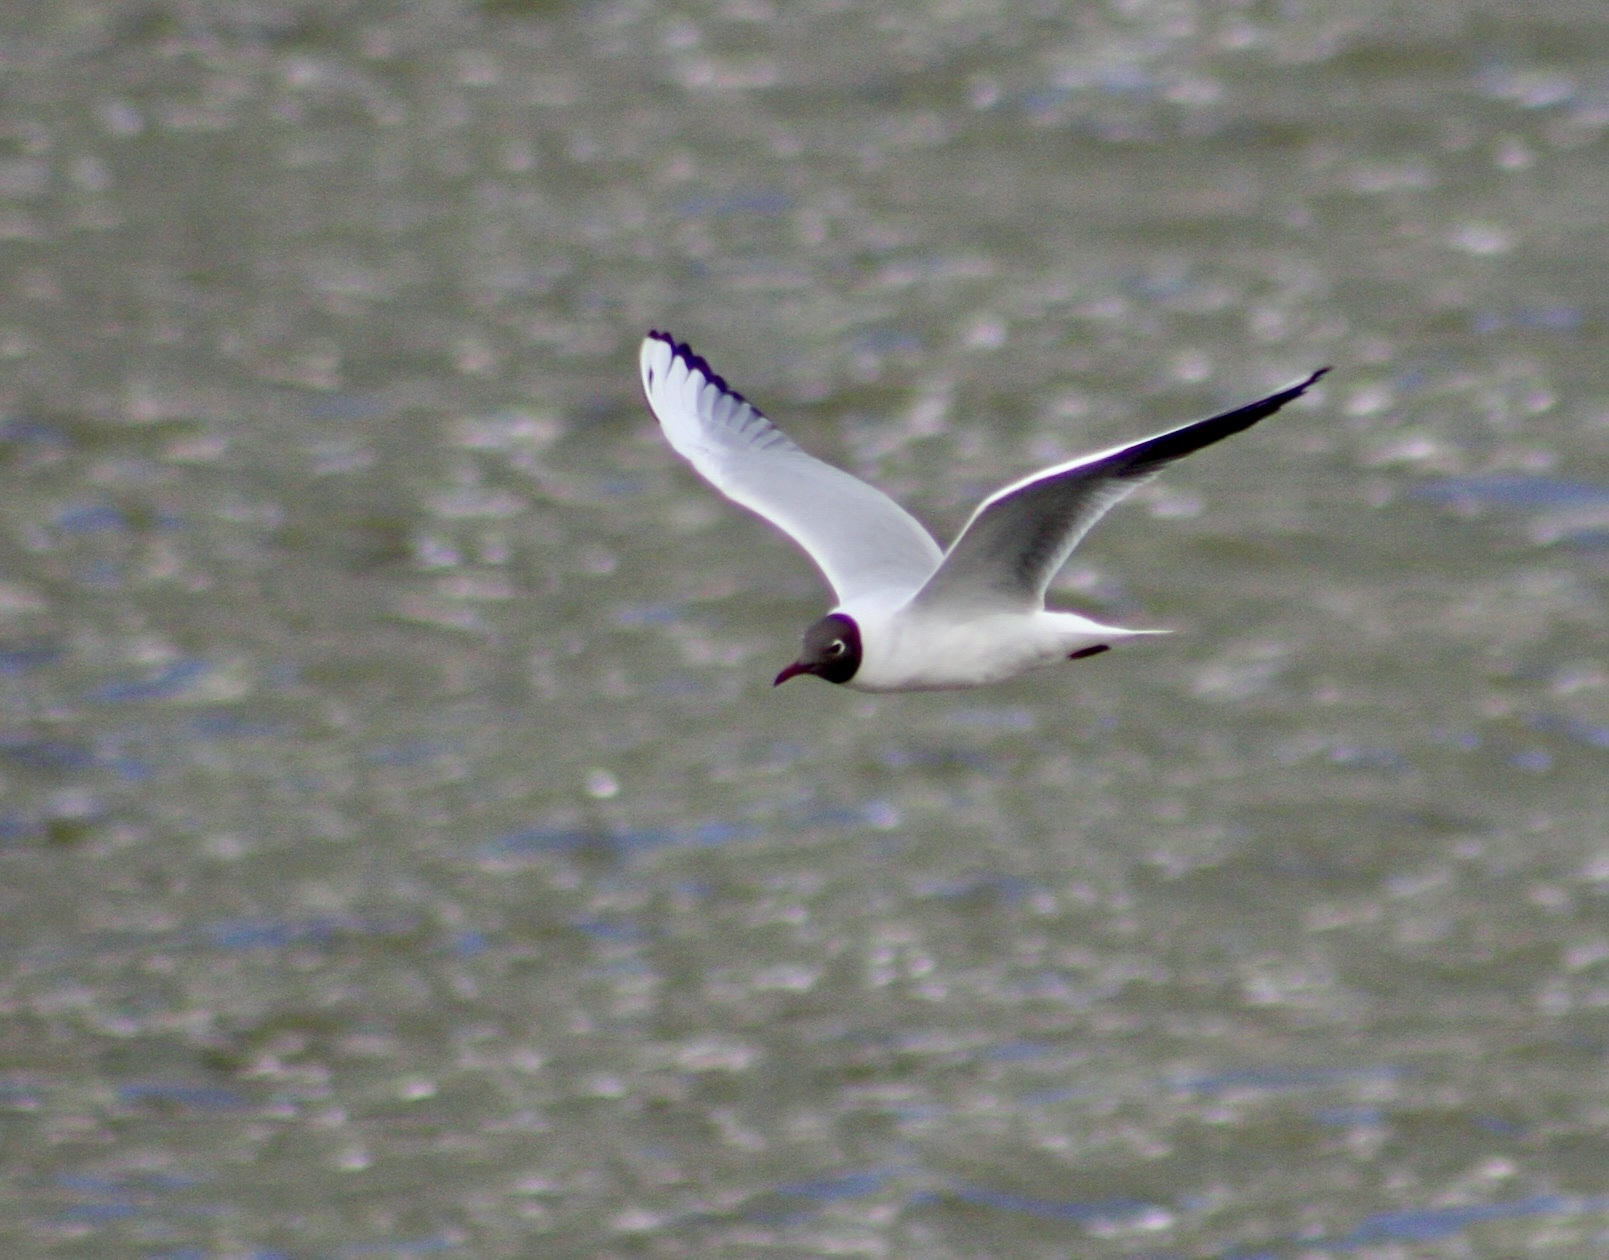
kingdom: Animalia
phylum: Chordata
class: Aves
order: Charadriiformes
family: Laridae
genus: Chroicocephalus
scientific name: Chroicocephalus ridibundus
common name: Black-headed gull
